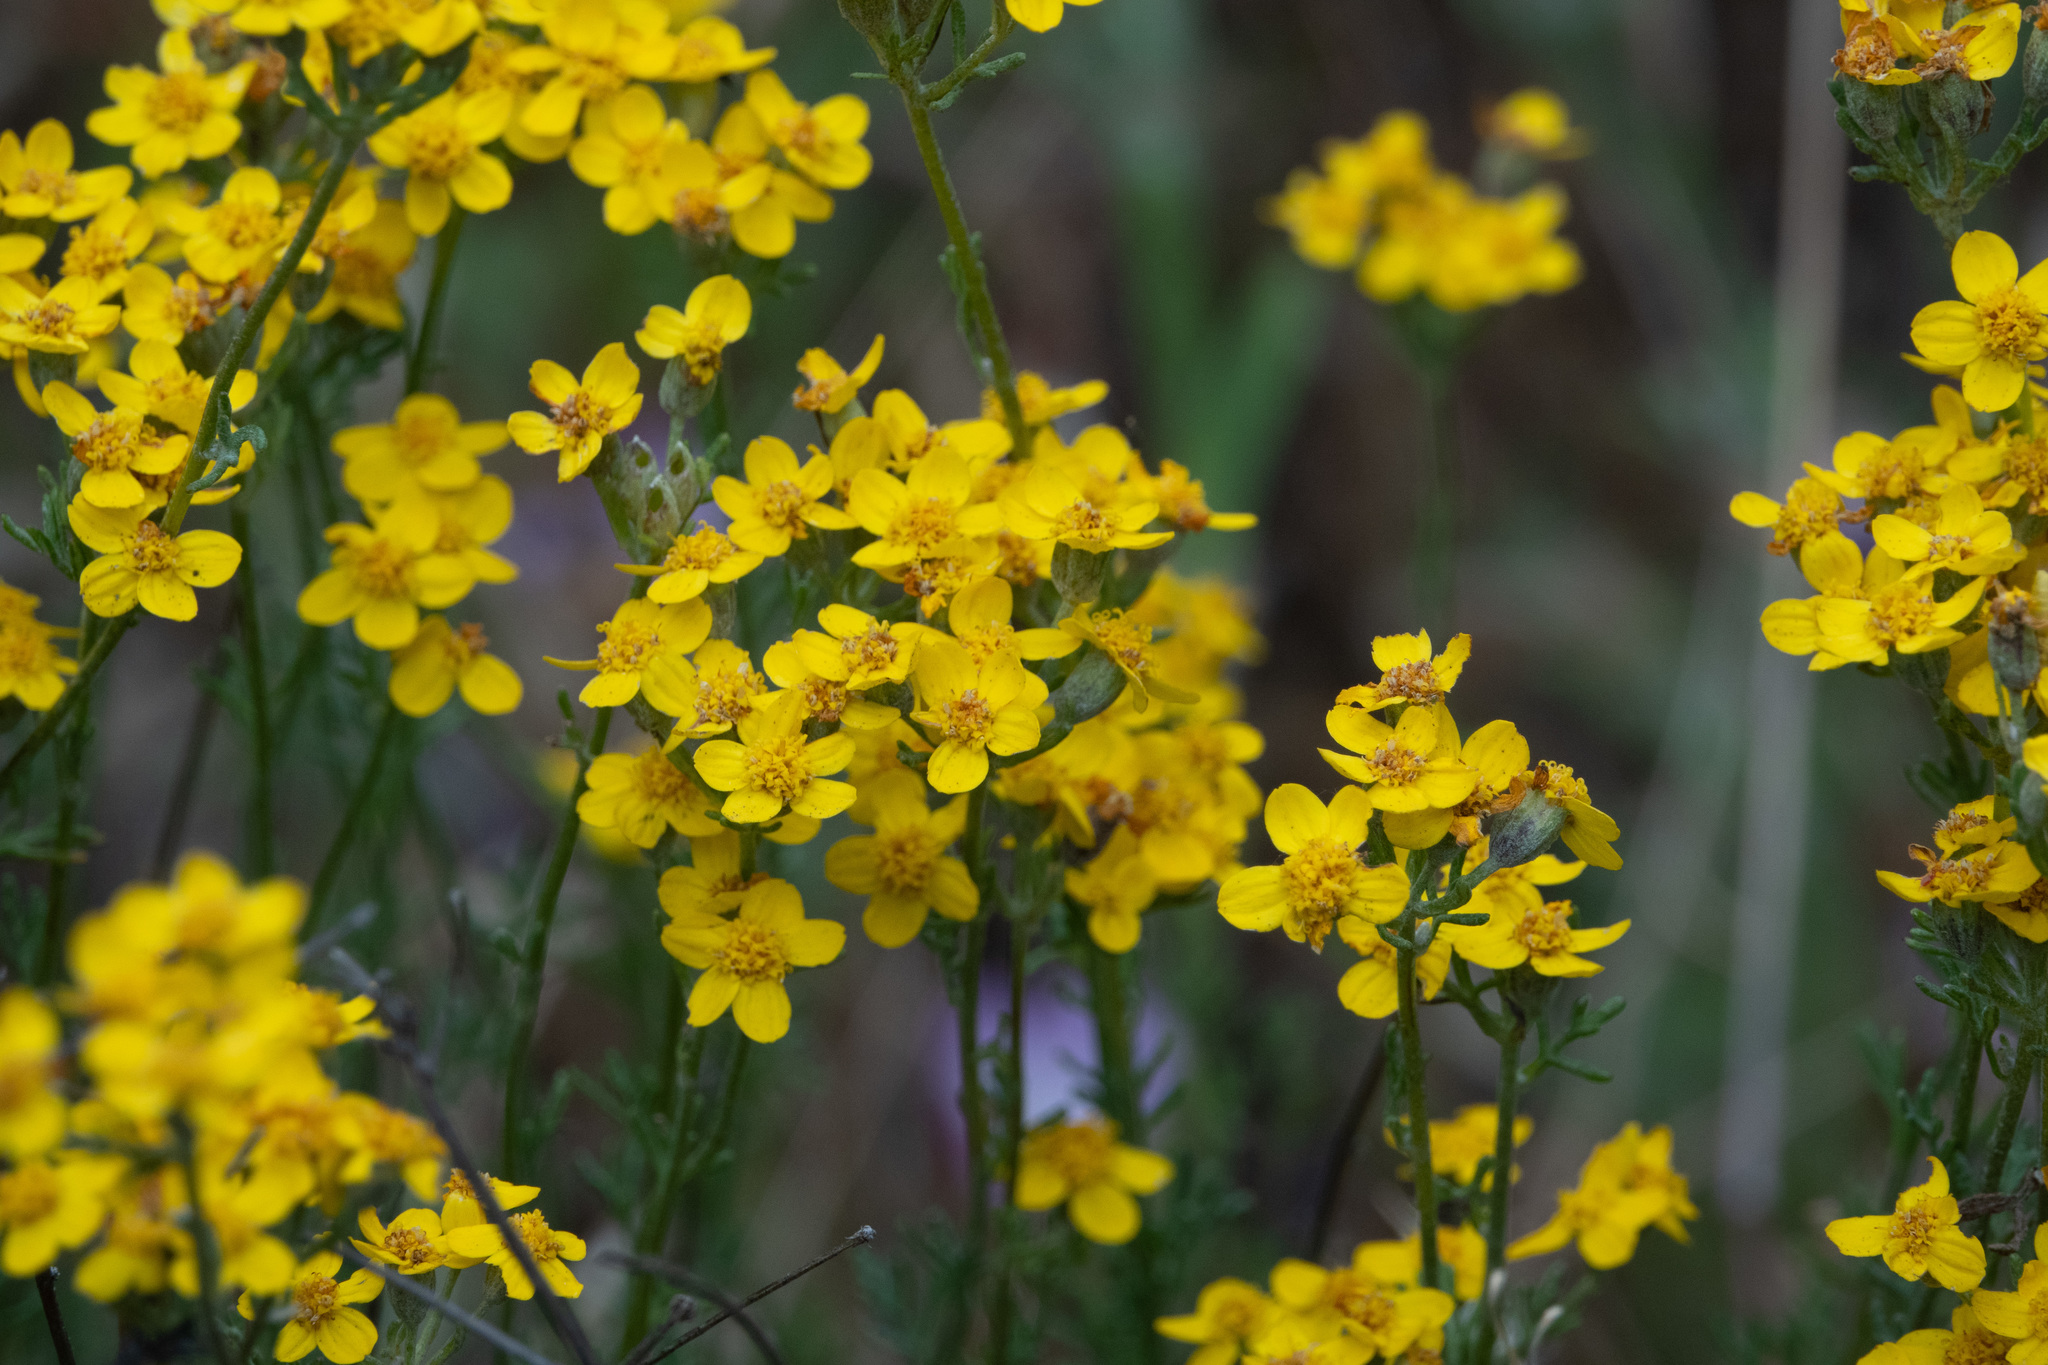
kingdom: Plantae
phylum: Tracheophyta
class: Magnoliopsida
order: Asterales
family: Asteraceae
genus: Eriophyllum
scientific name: Eriophyllum confertiflorum
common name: Golden-yarrow
